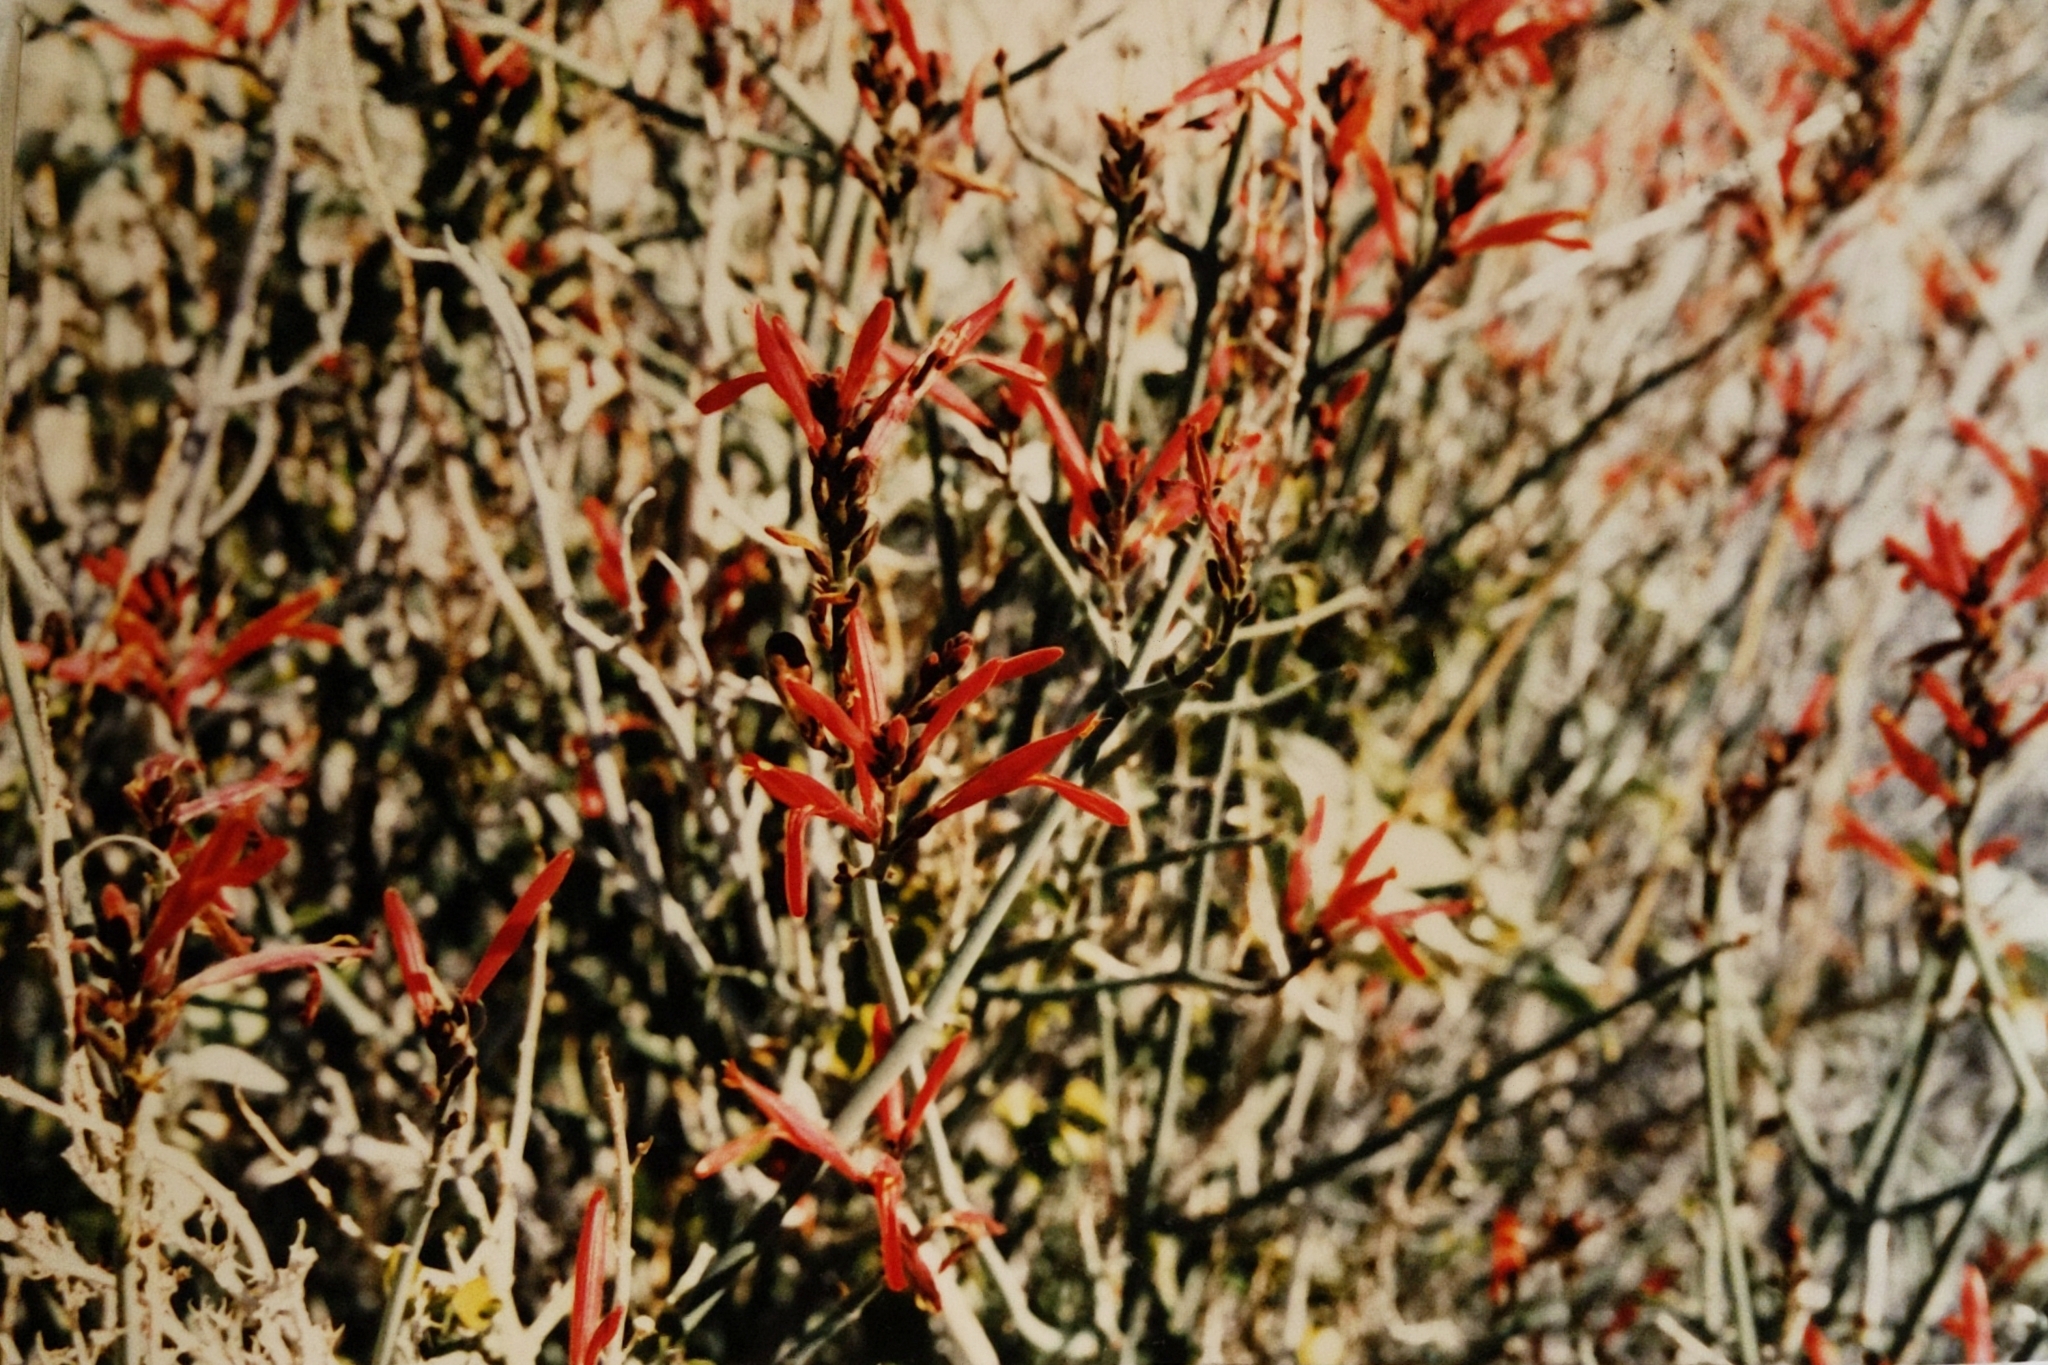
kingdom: Plantae
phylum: Tracheophyta
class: Magnoliopsida
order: Lamiales
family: Acanthaceae
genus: Justicia
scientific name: Justicia californica
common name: Chuparosa-honeysuckle
